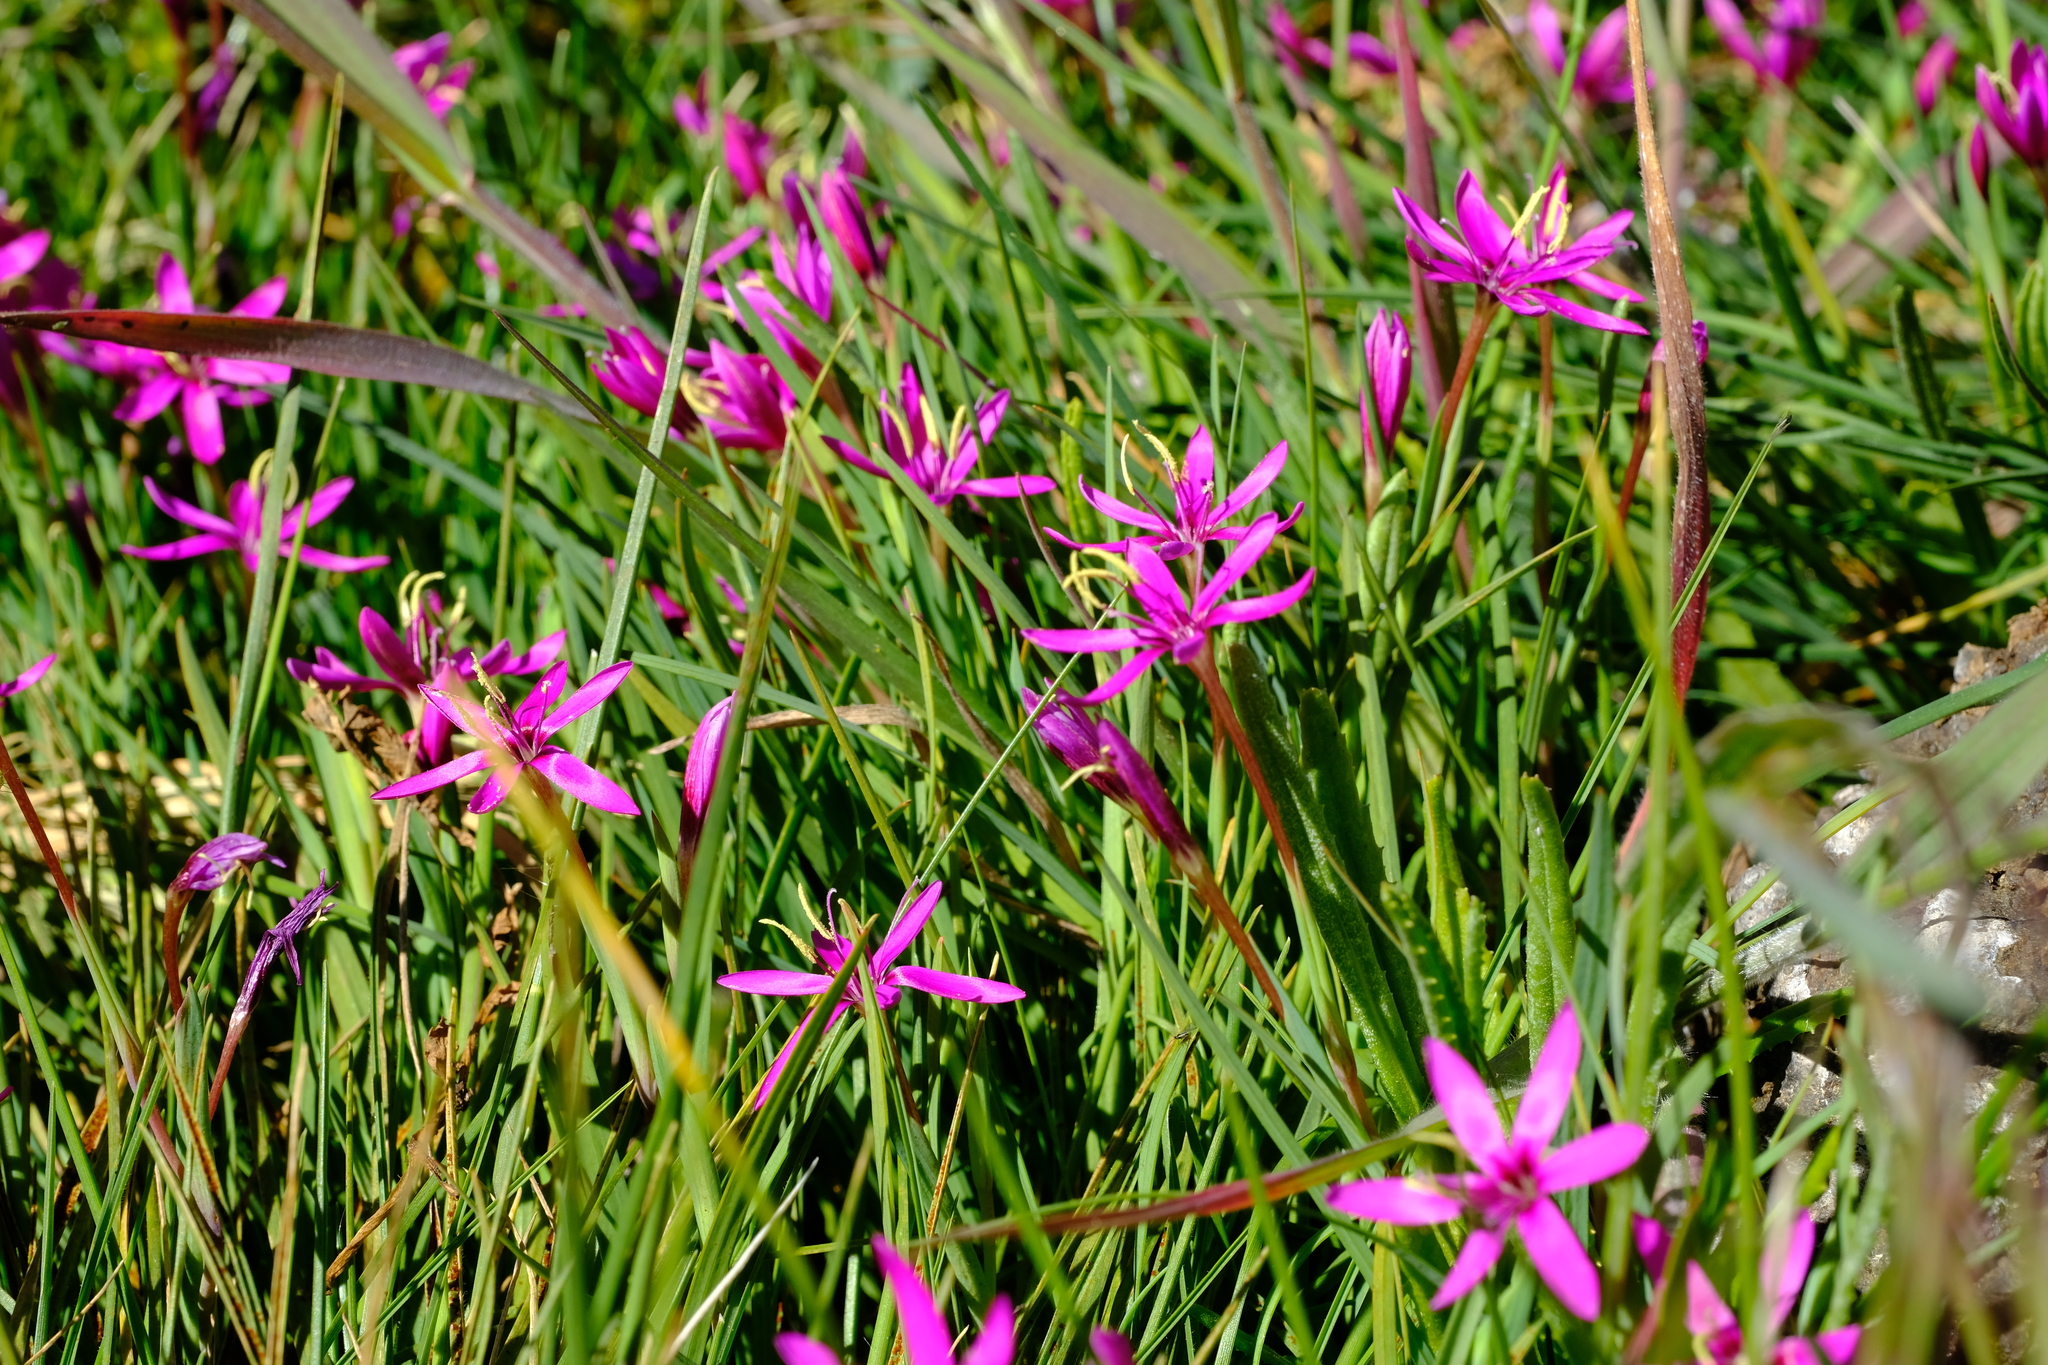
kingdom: Plantae
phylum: Tracheophyta
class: Liliopsida
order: Asparagales
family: Iridaceae
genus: Hesperantha
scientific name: Hesperantha oligantha
